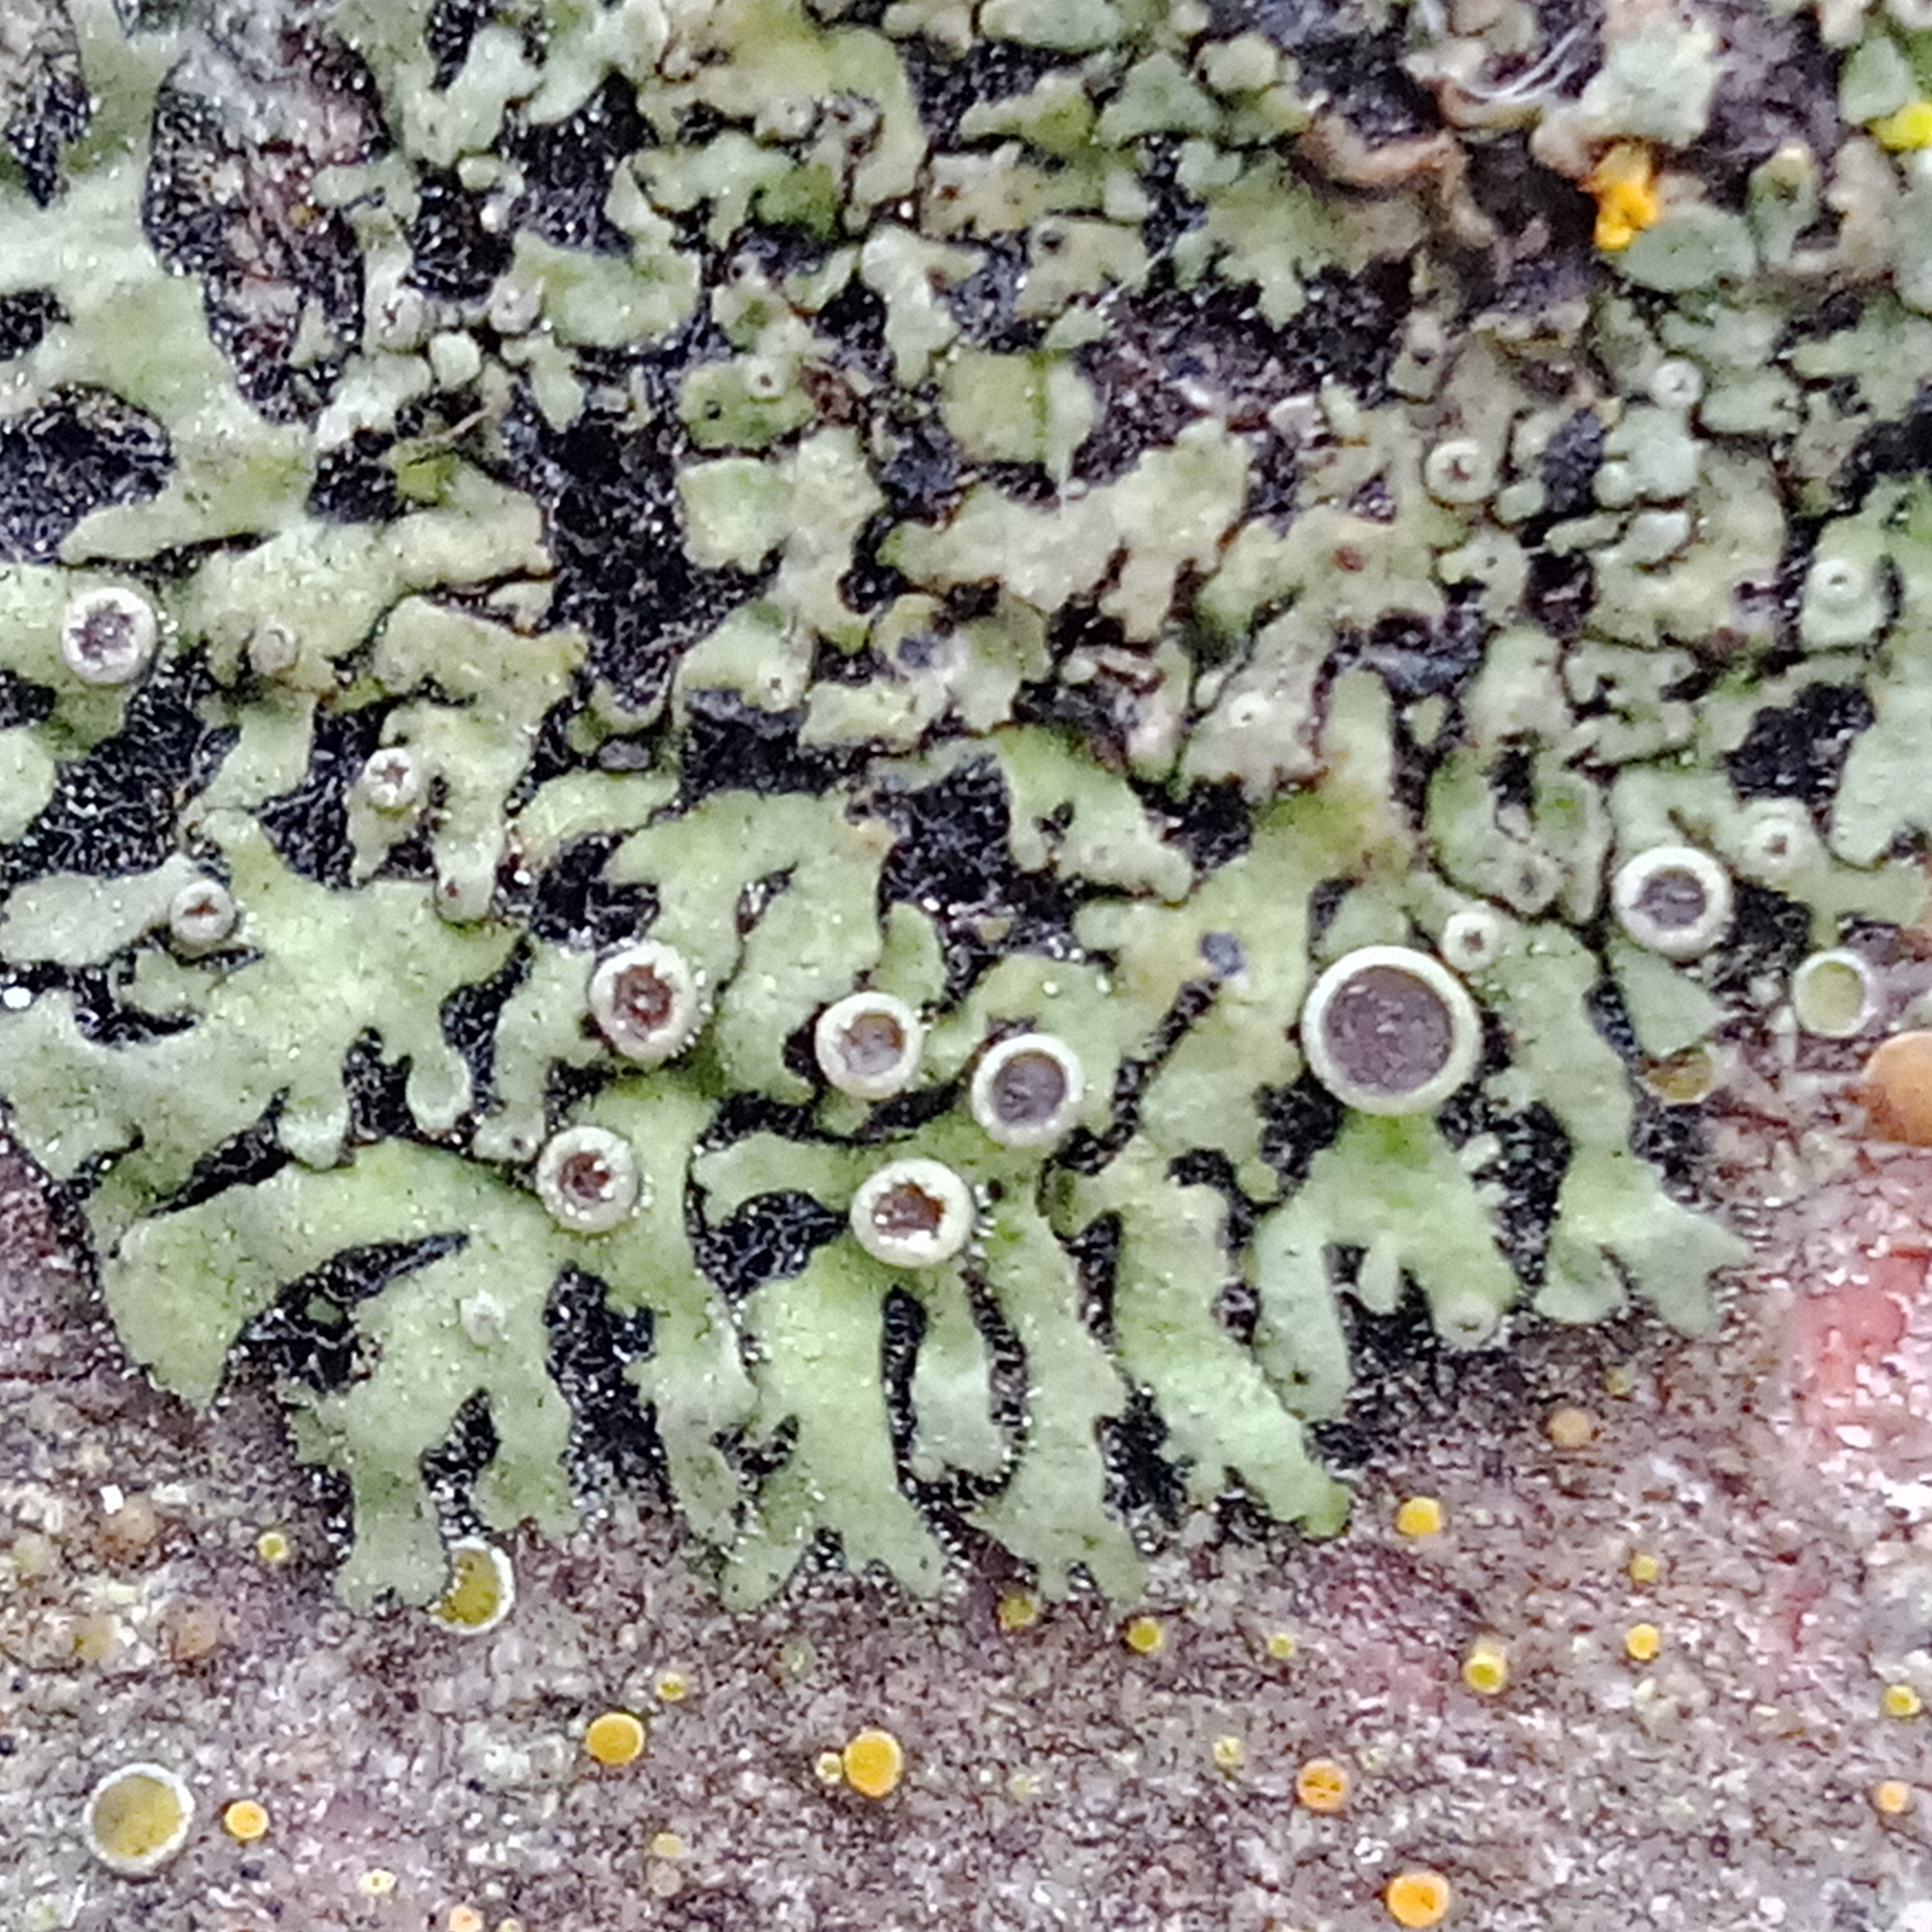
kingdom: Fungi
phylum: Ascomycota
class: Lecanoromycetes
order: Caliciales
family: Physciaceae
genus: Phaeophyscia
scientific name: Phaeophyscia hirtella
